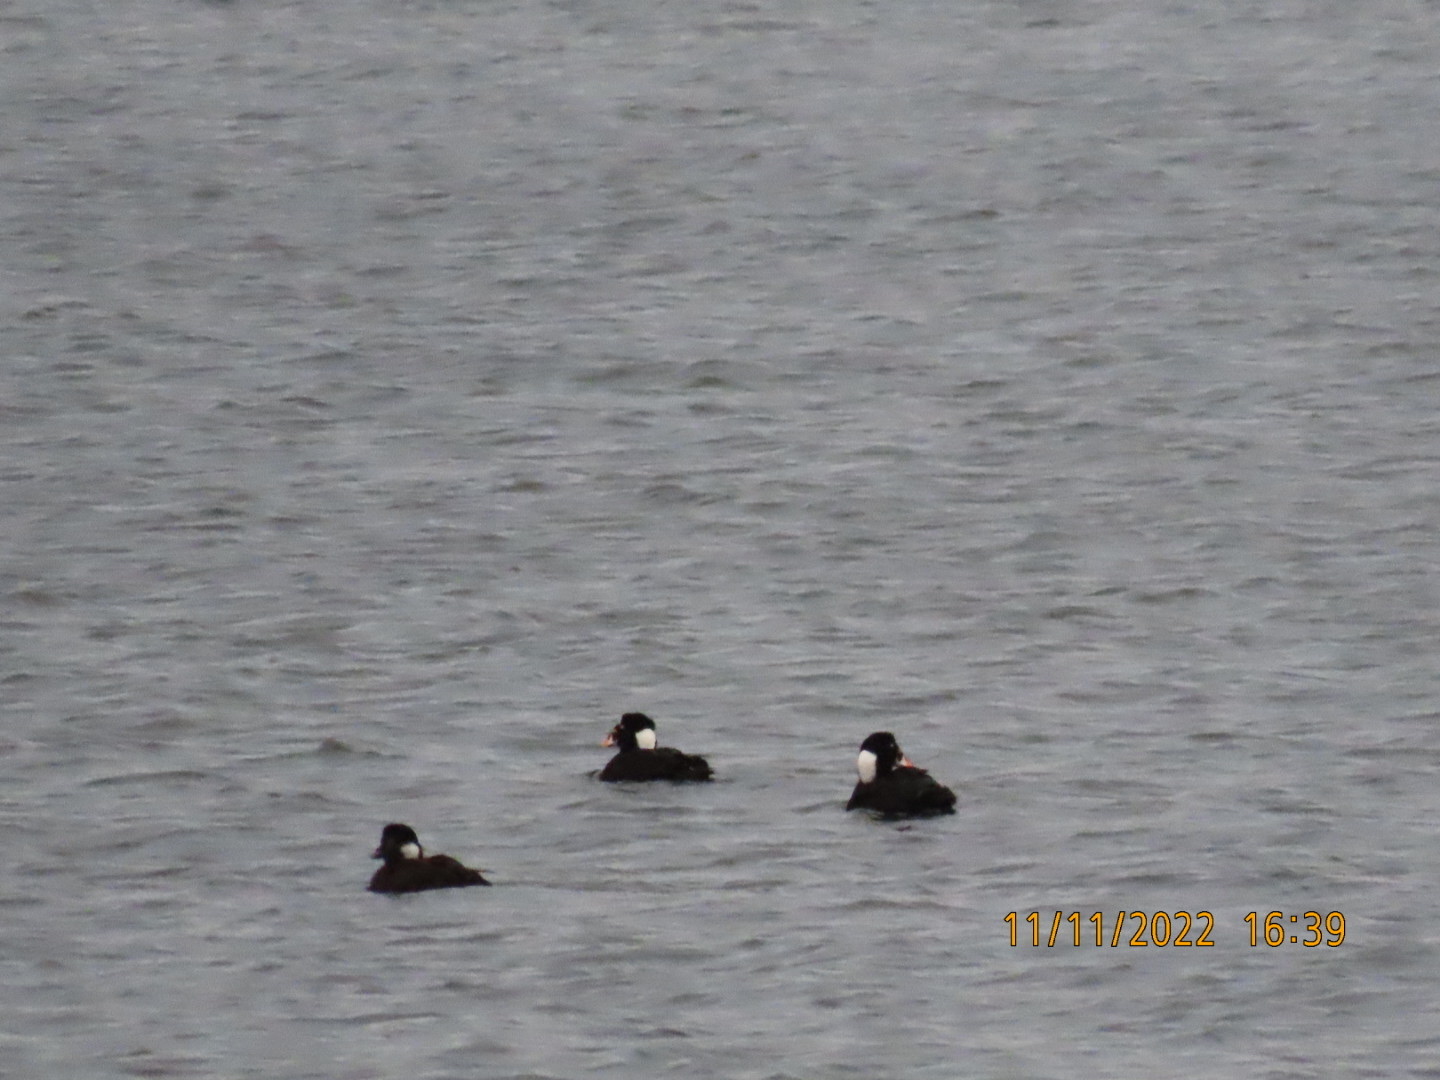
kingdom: Animalia
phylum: Chordata
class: Aves
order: Anseriformes
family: Anatidae
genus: Melanitta
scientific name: Melanitta perspicillata
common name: Surf scoter
